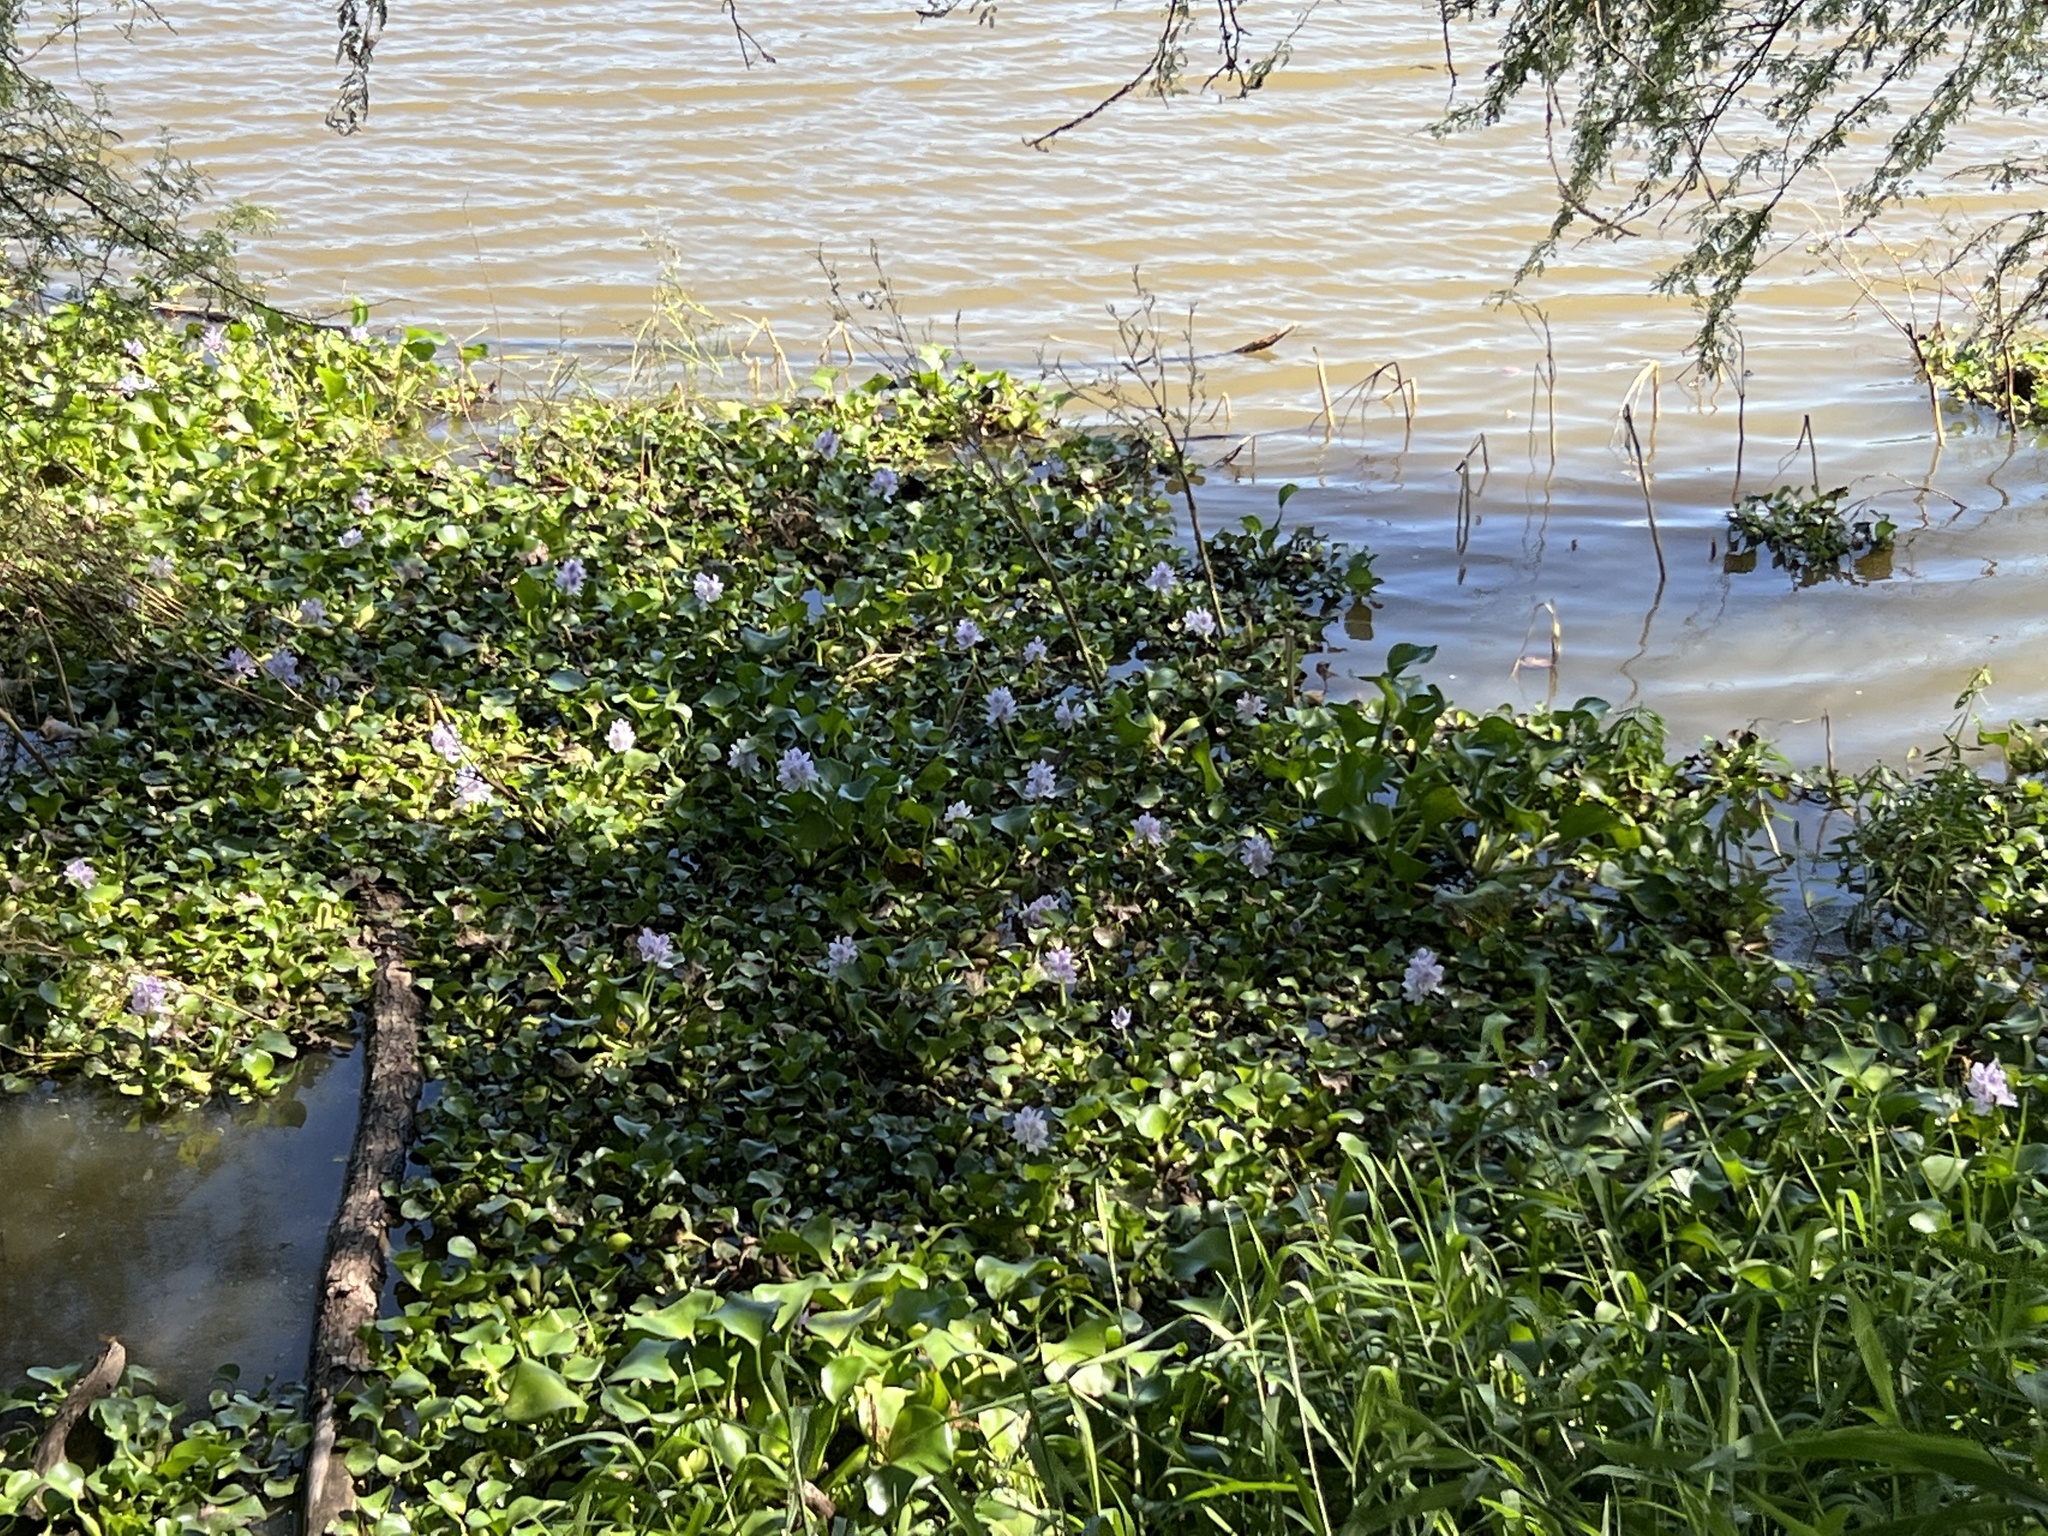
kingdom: Plantae
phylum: Tracheophyta
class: Liliopsida
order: Commelinales
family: Pontederiaceae
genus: Pontederia
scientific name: Pontederia crassipes
